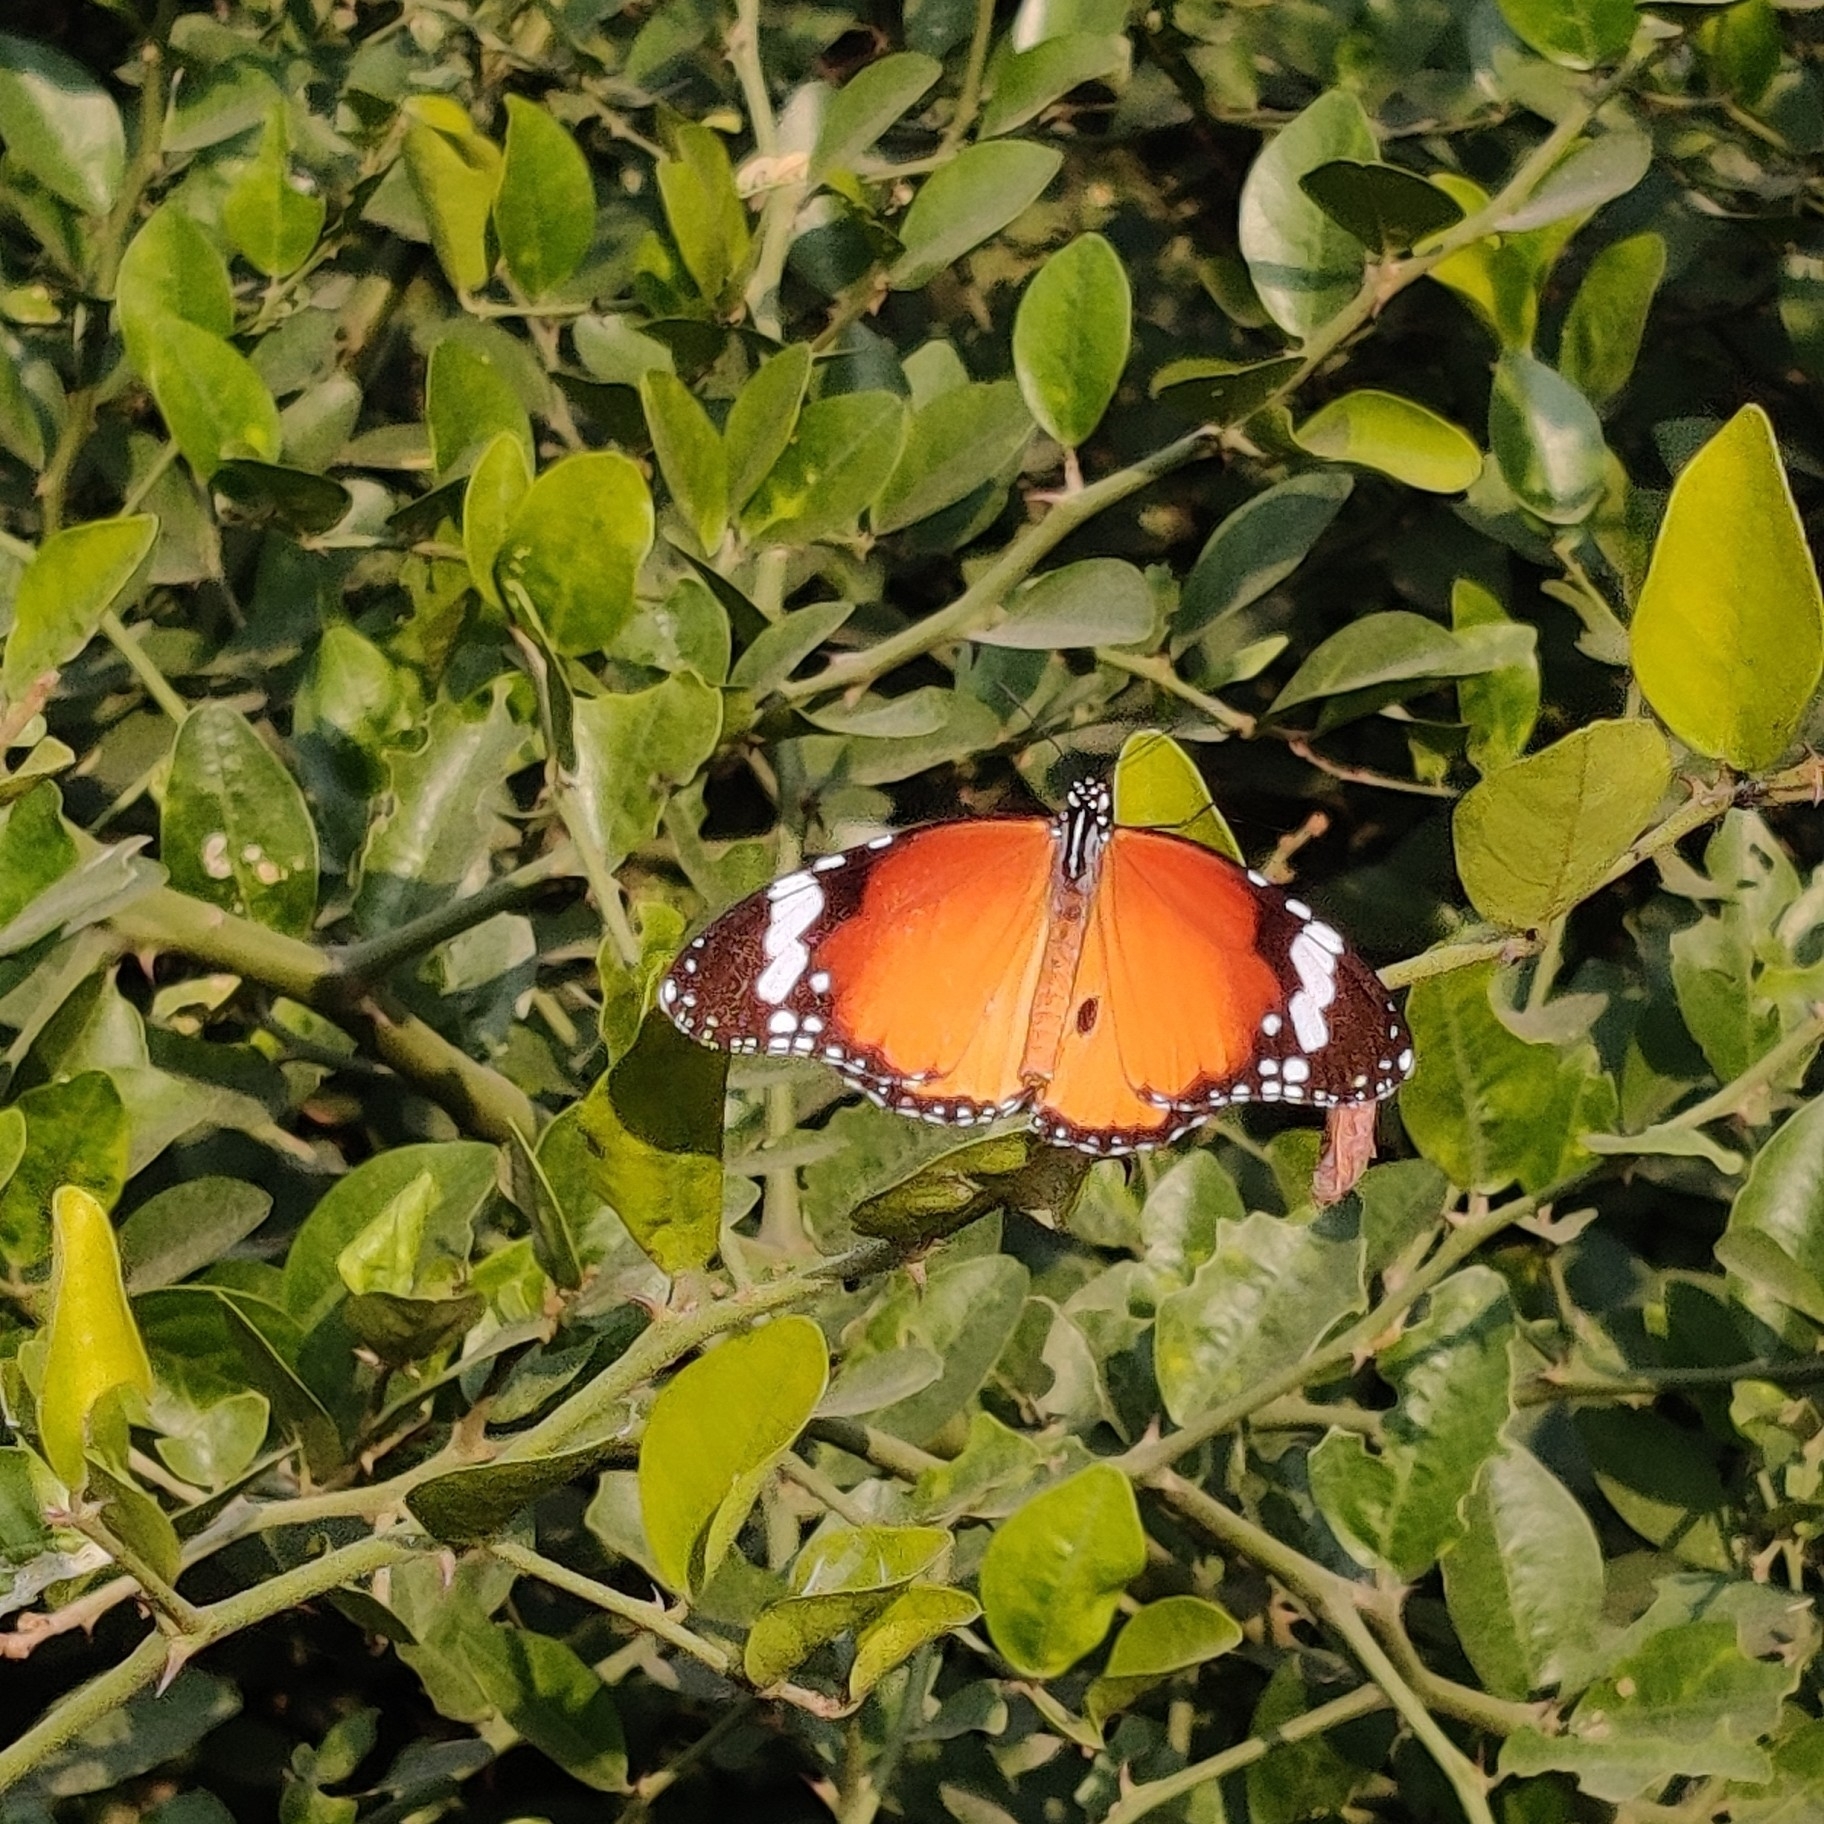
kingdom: Animalia
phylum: Arthropoda
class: Insecta
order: Lepidoptera
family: Nymphalidae
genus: Danaus
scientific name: Danaus chrysippus
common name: Plain tiger
